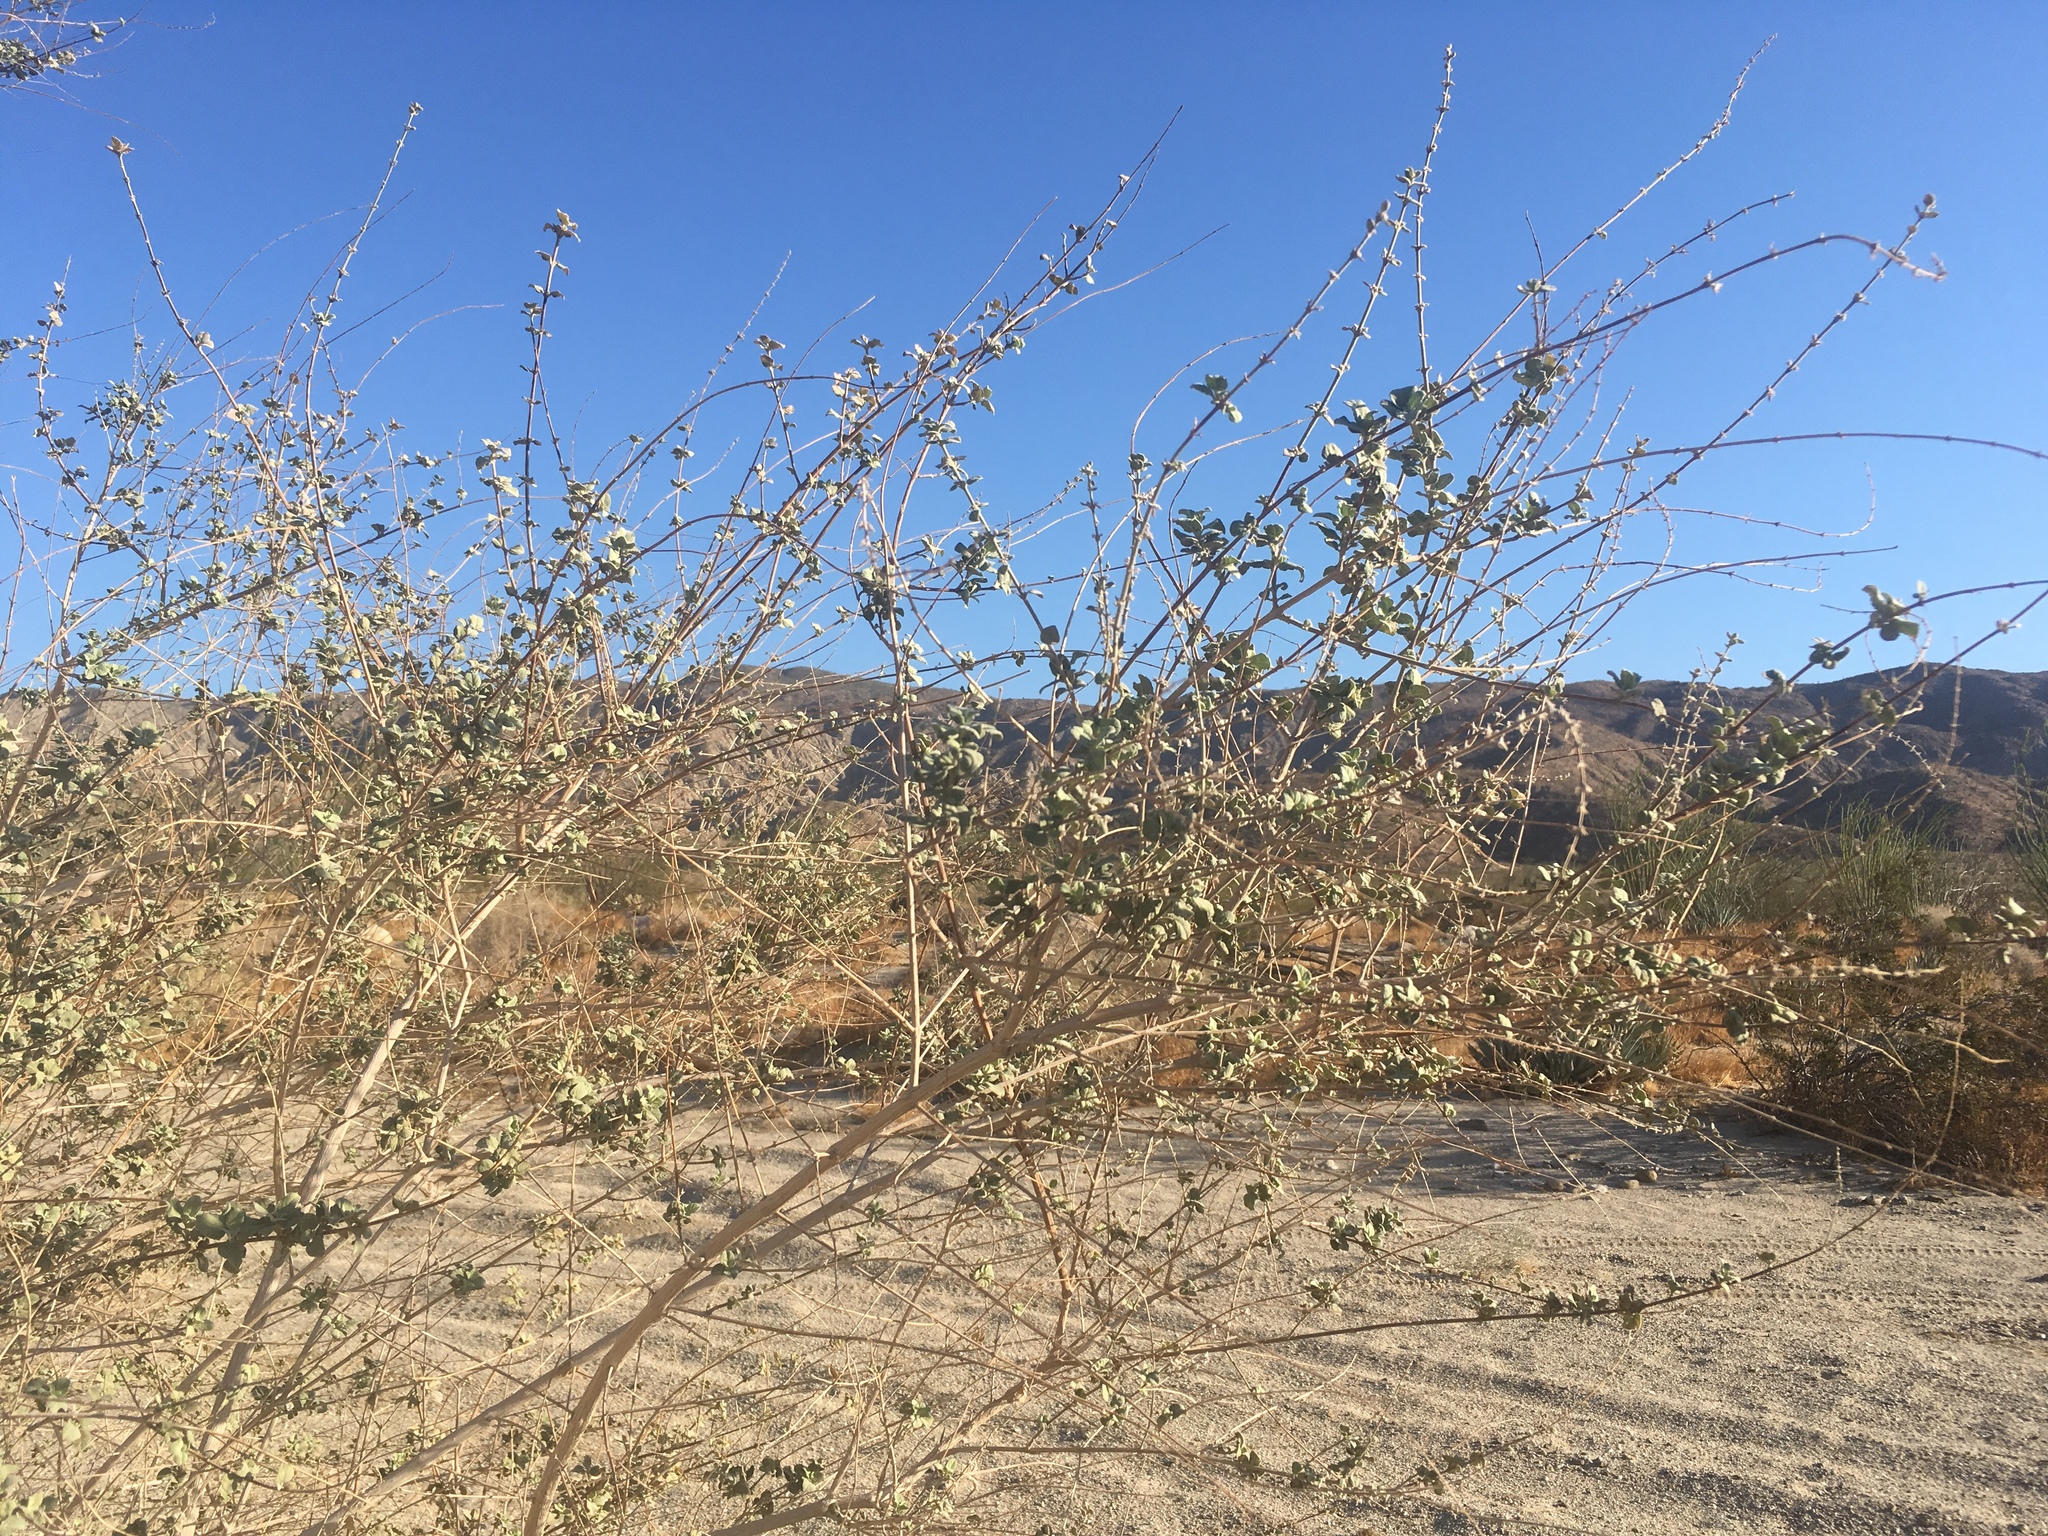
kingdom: Plantae
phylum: Tracheophyta
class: Magnoliopsida
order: Lamiales
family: Lamiaceae
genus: Condea
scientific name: Condea emoryi
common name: Chia
